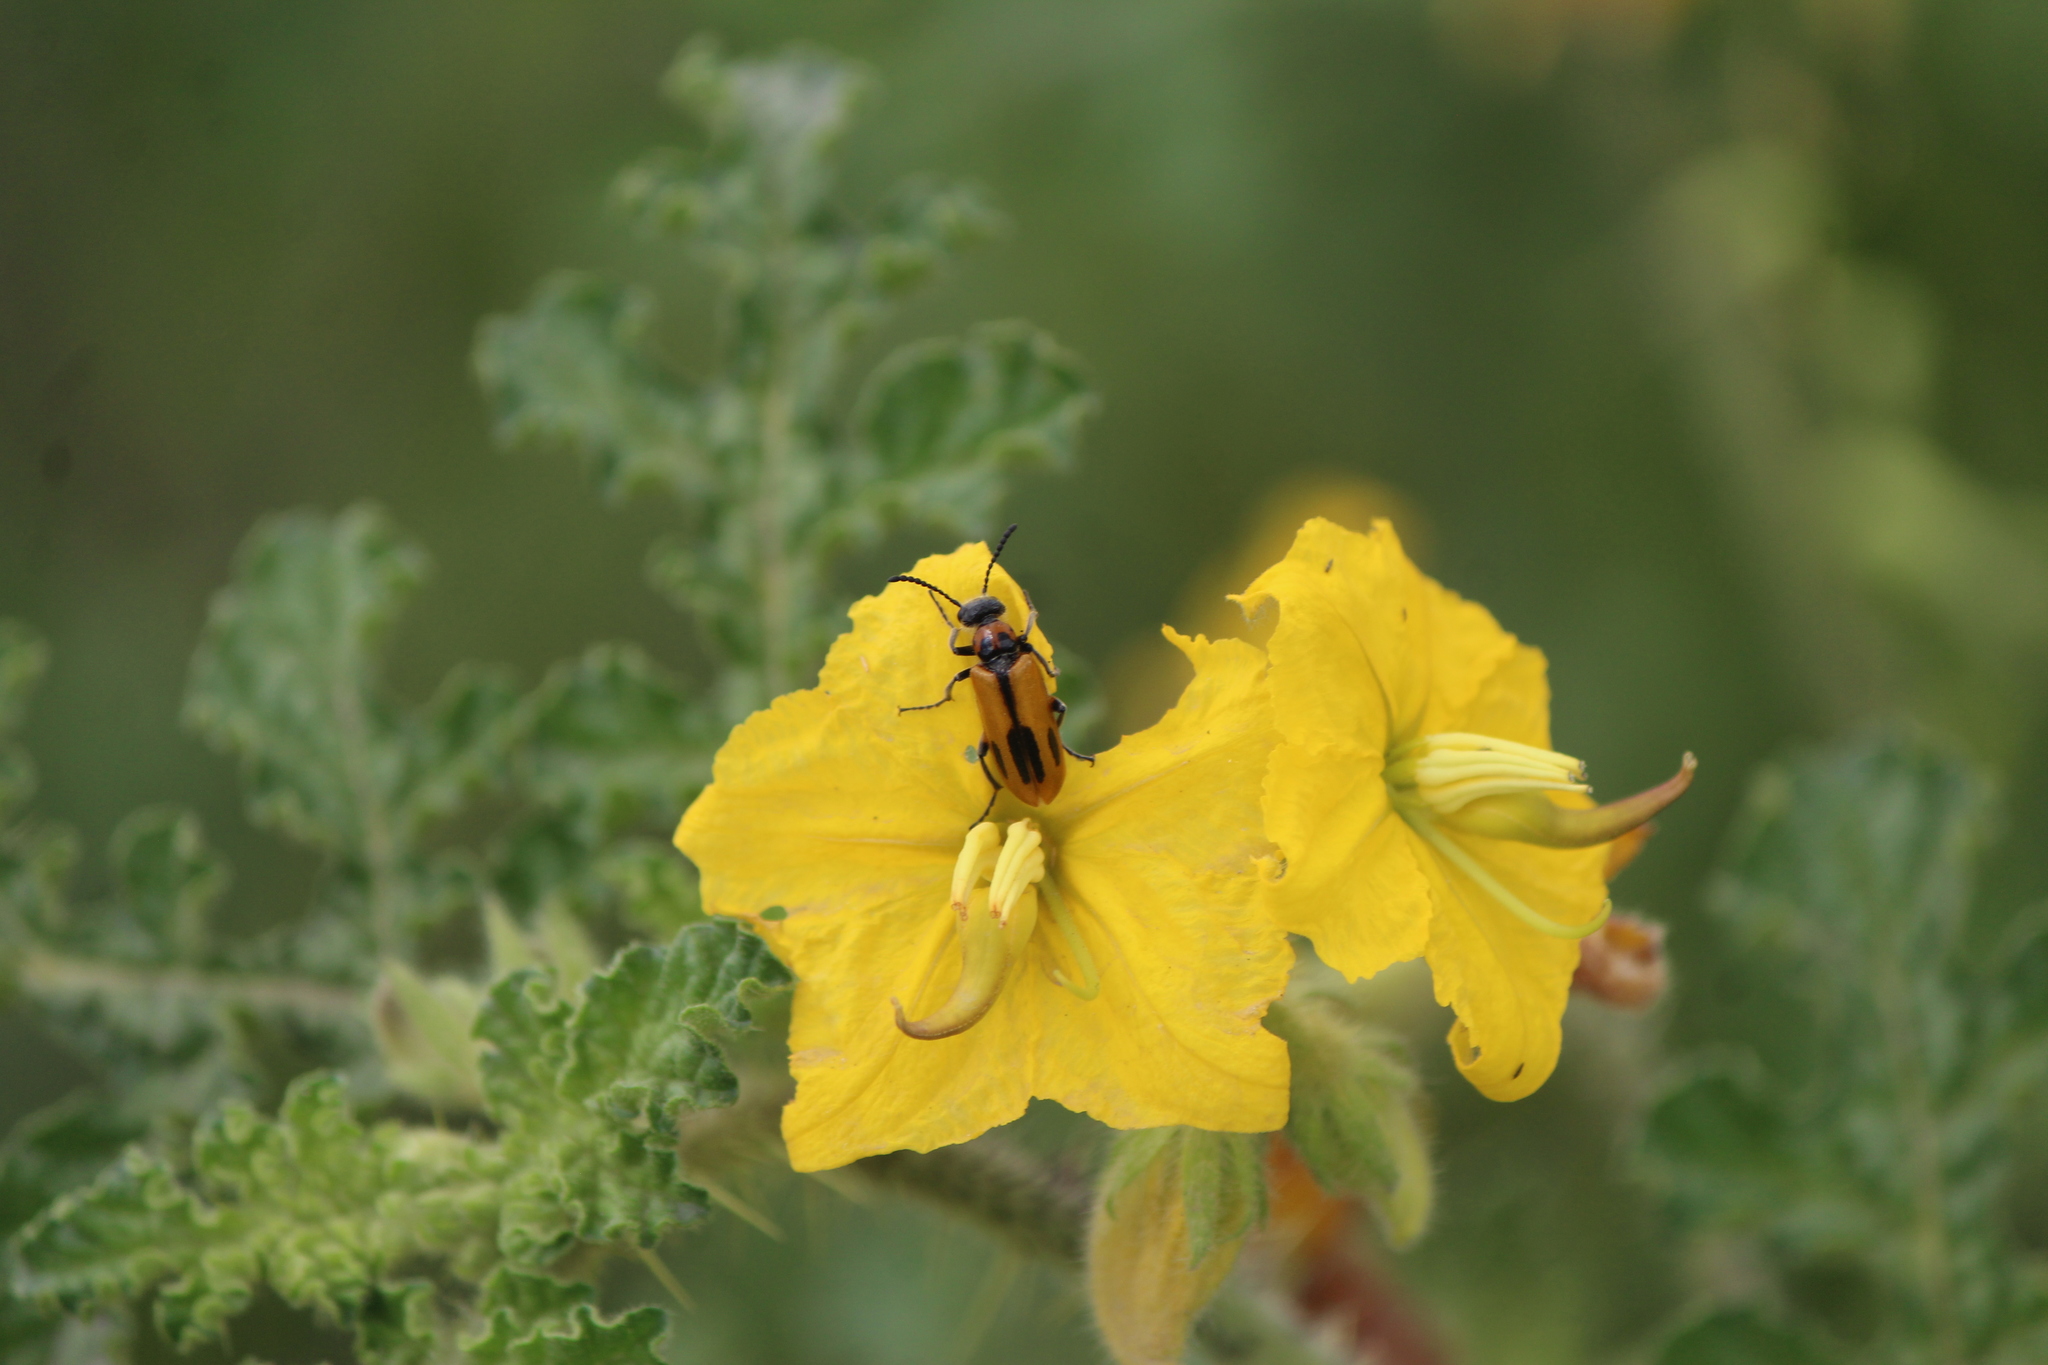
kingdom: Animalia
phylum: Arthropoda
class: Insecta
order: Coleoptera
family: Meloidae
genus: Lytta
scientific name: Lytta biguttata
